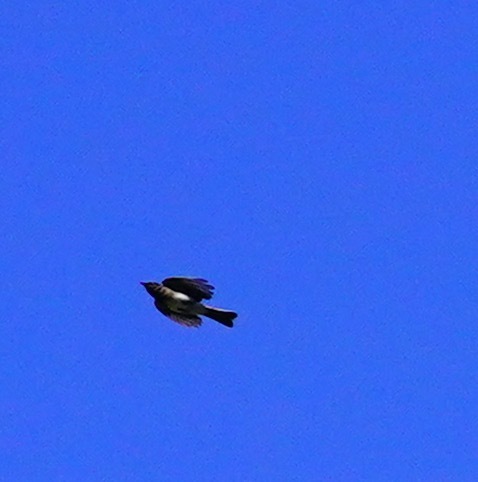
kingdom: Animalia
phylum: Chordata
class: Aves
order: Passeriformes
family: Tyrannidae
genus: Sayornis
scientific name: Sayornis nigricans
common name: Black phoebe
